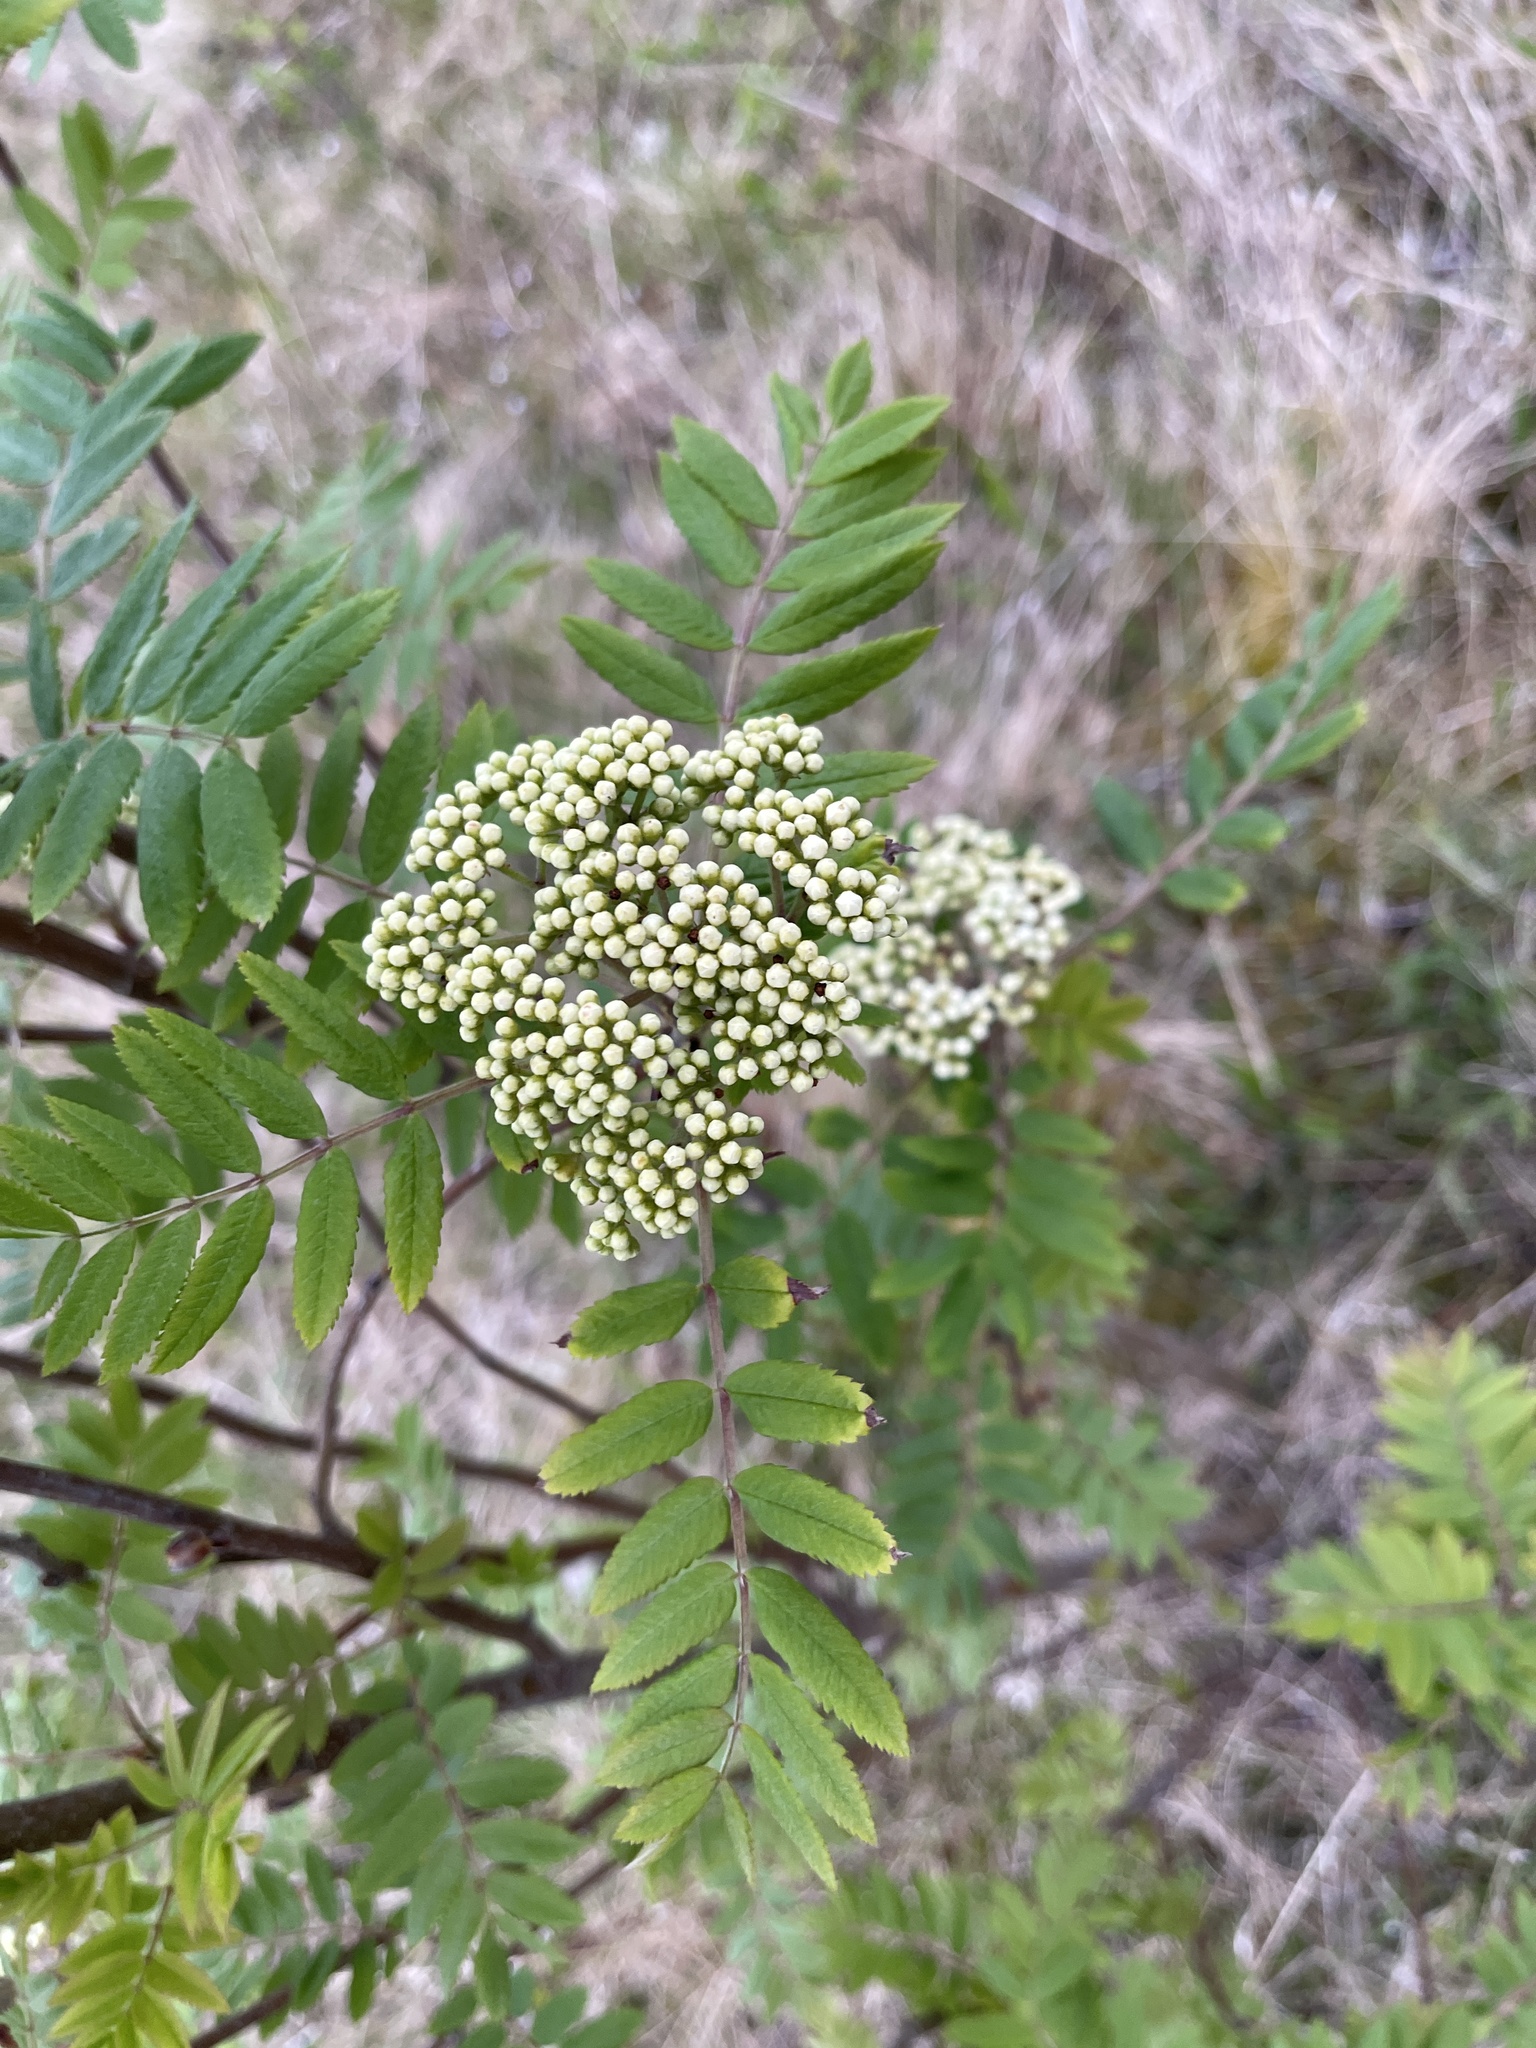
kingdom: Plantae
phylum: Tracheophyta
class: Magnoliopsida
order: Rosales
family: Rosaceae
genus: Sorbus
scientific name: Sorbus aucuparia
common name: Rowan
